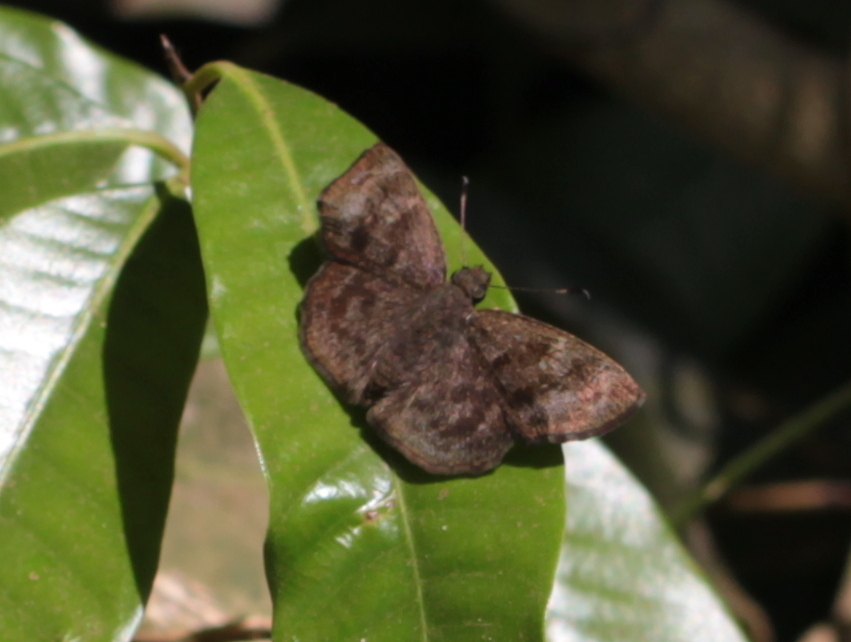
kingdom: Animalia
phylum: Arthropoda
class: Insecta
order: Lepidoptera
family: Hesperiidae
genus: Sarangesa
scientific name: Sarangesa dasahara
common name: Common small flat
